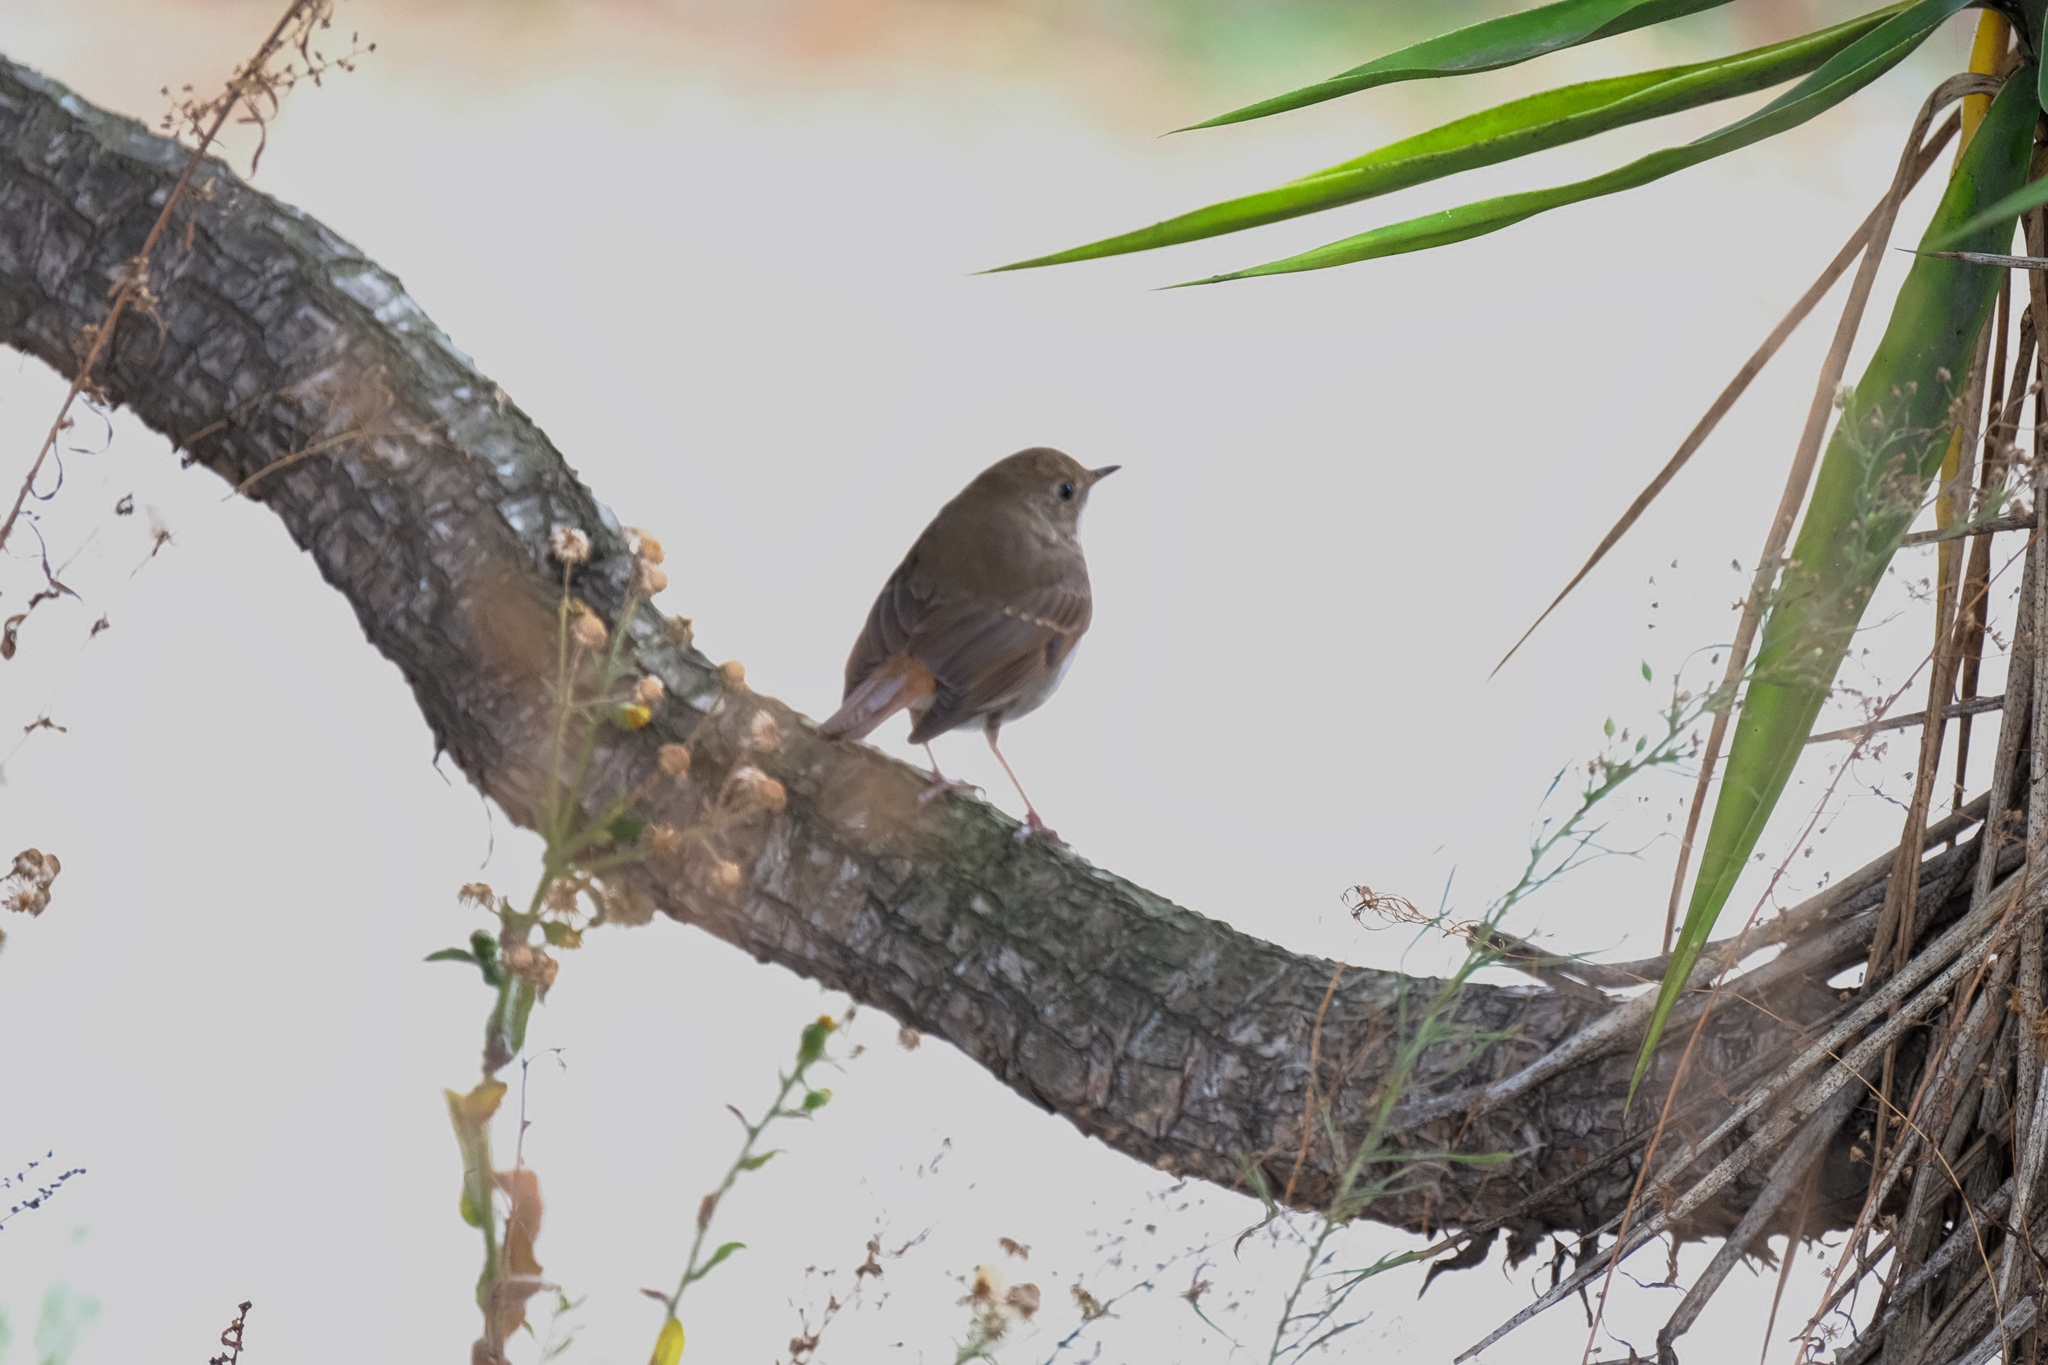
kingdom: Animalia
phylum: Chordata
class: Aves
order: Passeriformes
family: Turdidae
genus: Catharus
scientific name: Catharus guttatus
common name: Hermit thrush
